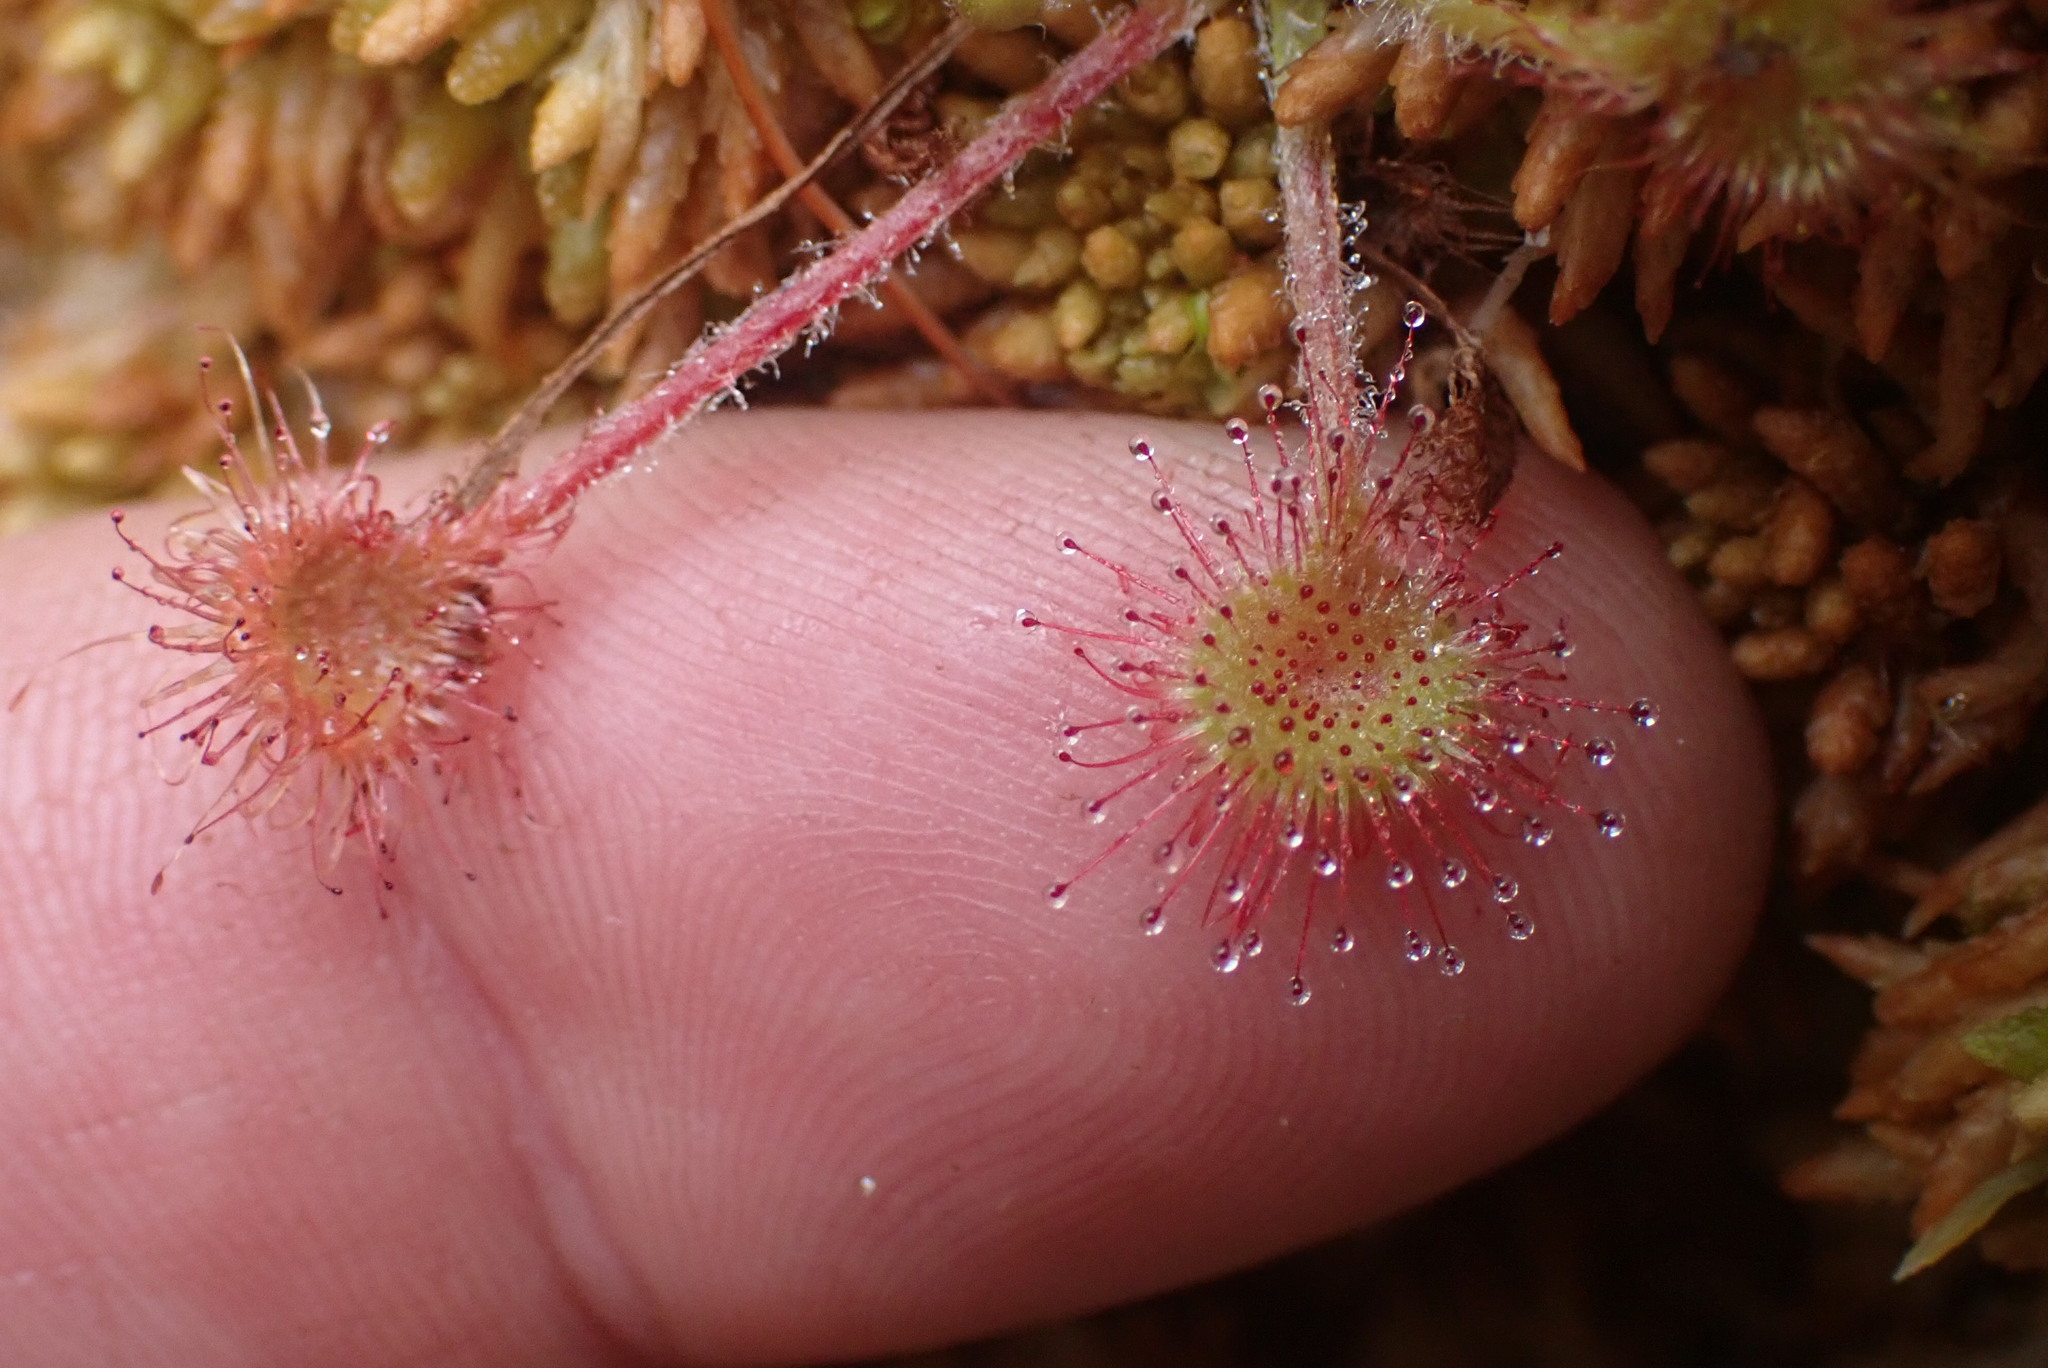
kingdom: Plantae
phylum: Tracheophyta
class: Magnoliopsida
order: Caryophyllales
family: Droseraceae
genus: Drosera
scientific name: Drosera rotundifolia
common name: Round-leaved sundew
